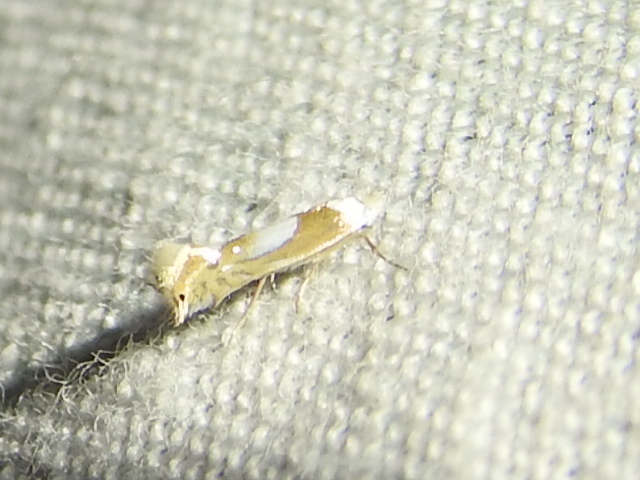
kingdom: Animalia
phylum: Arthropoda
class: Insecta
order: Lepidoptera
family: Gracillariidae
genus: Phyllonorycter
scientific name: Phyllonorycter fitchella
